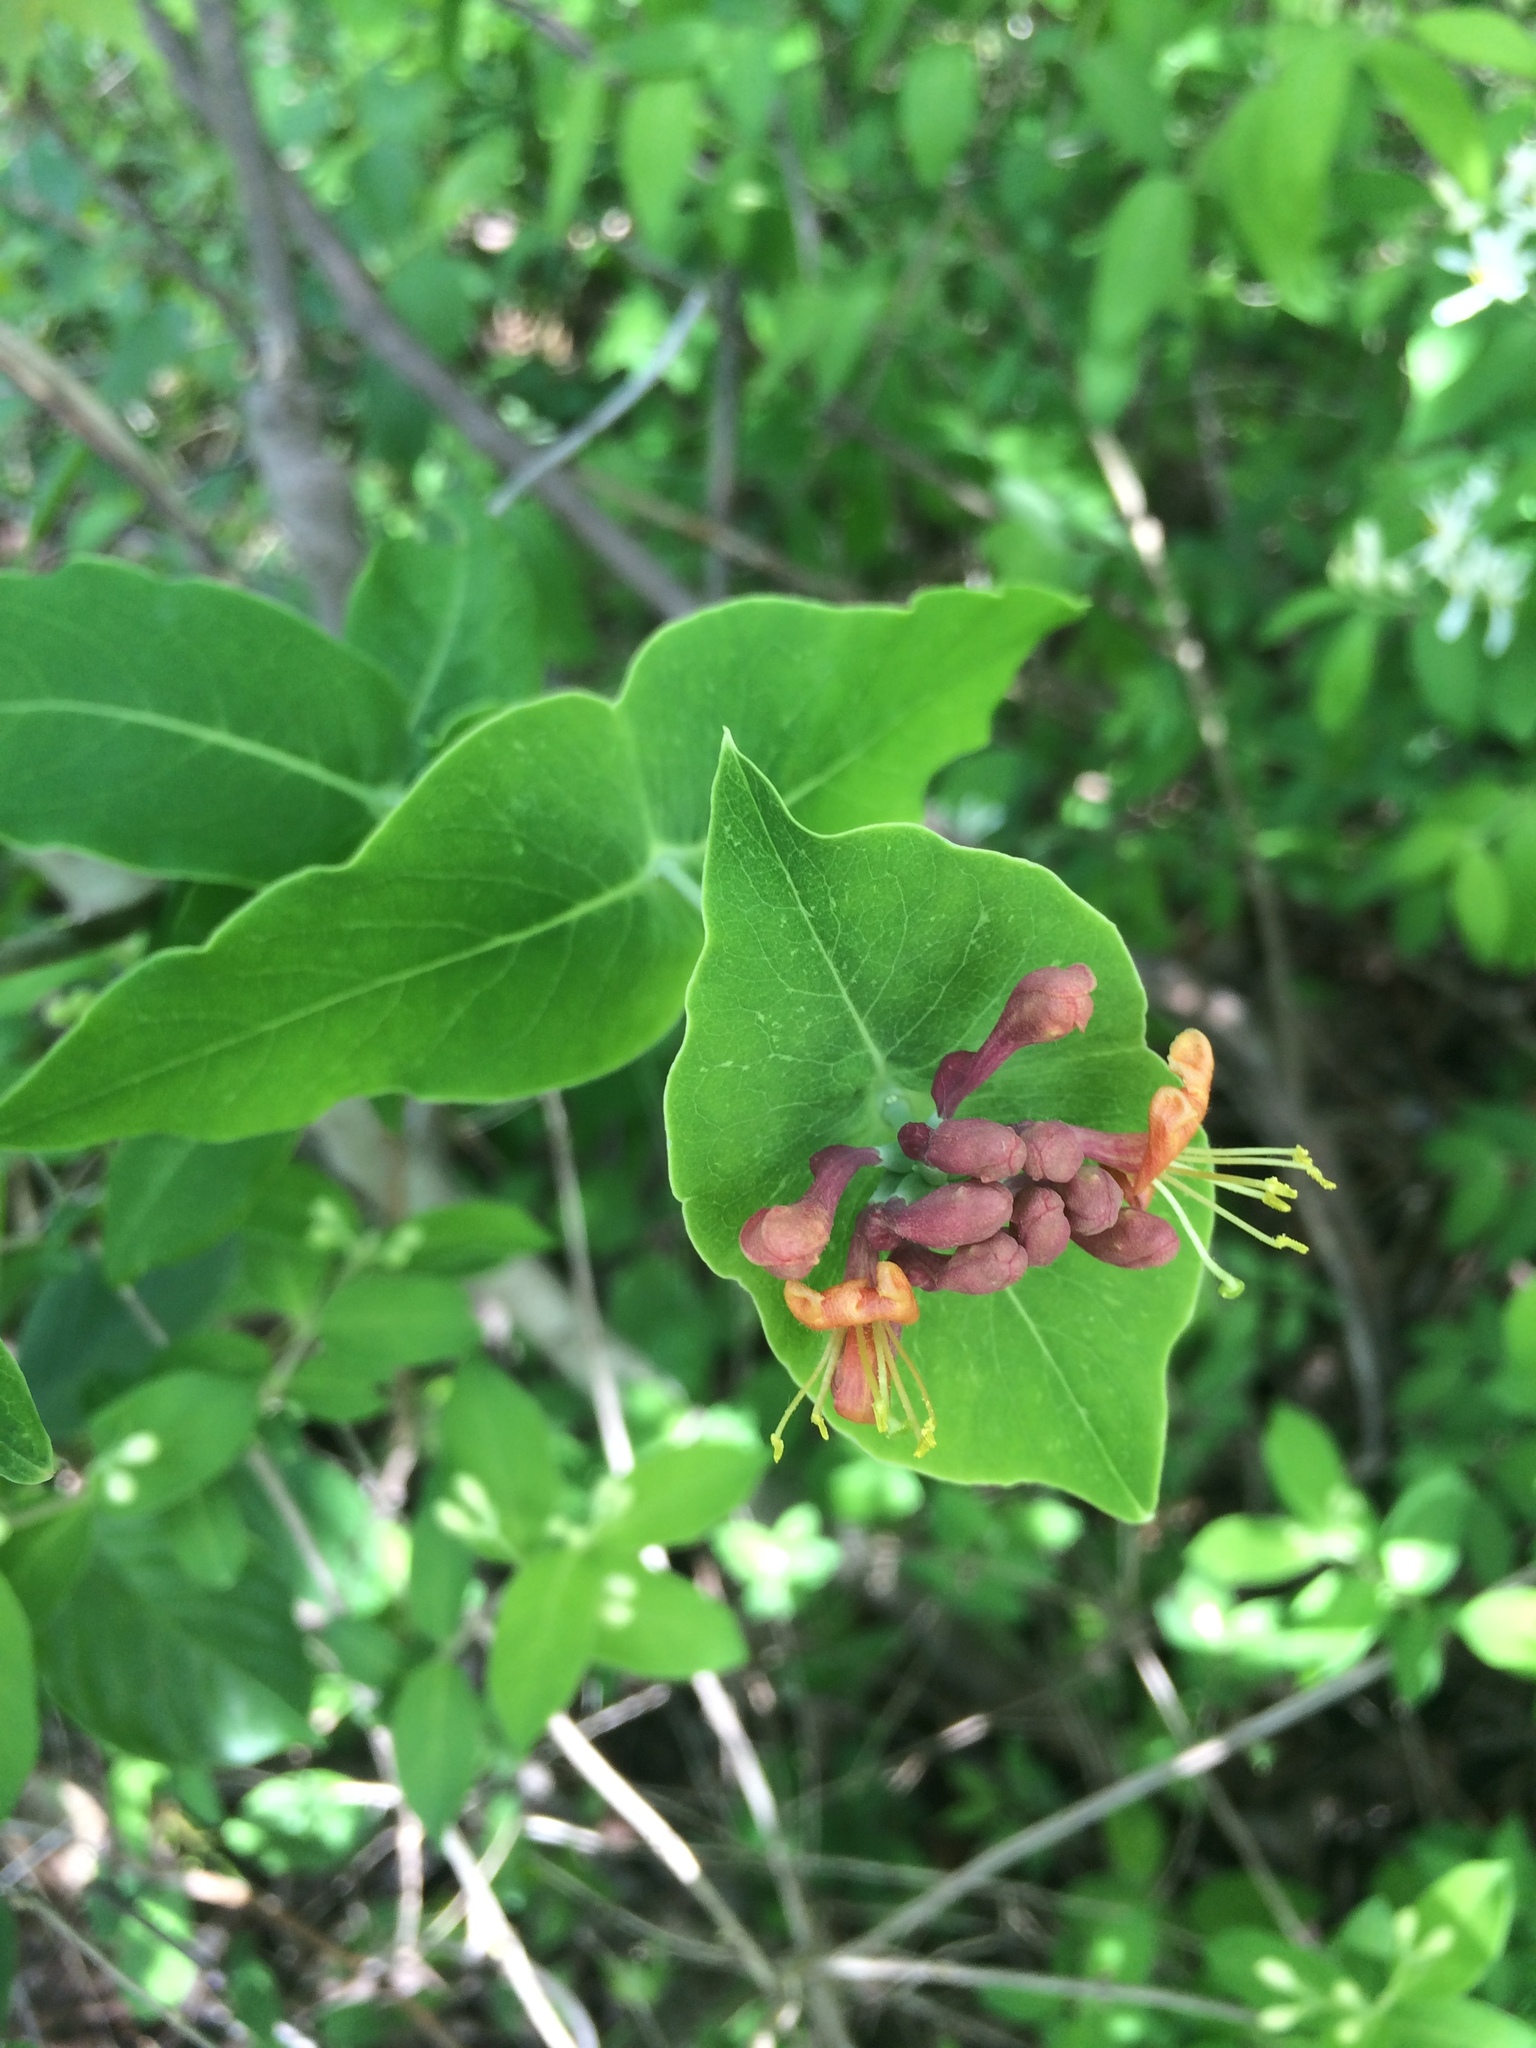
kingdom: Plantae
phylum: Tracheophyta
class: Magnoliopsida
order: Dipsacales
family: Caprifoliaceae
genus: Lonicera
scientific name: Lonicera dioica
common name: Limber honeysuckle
